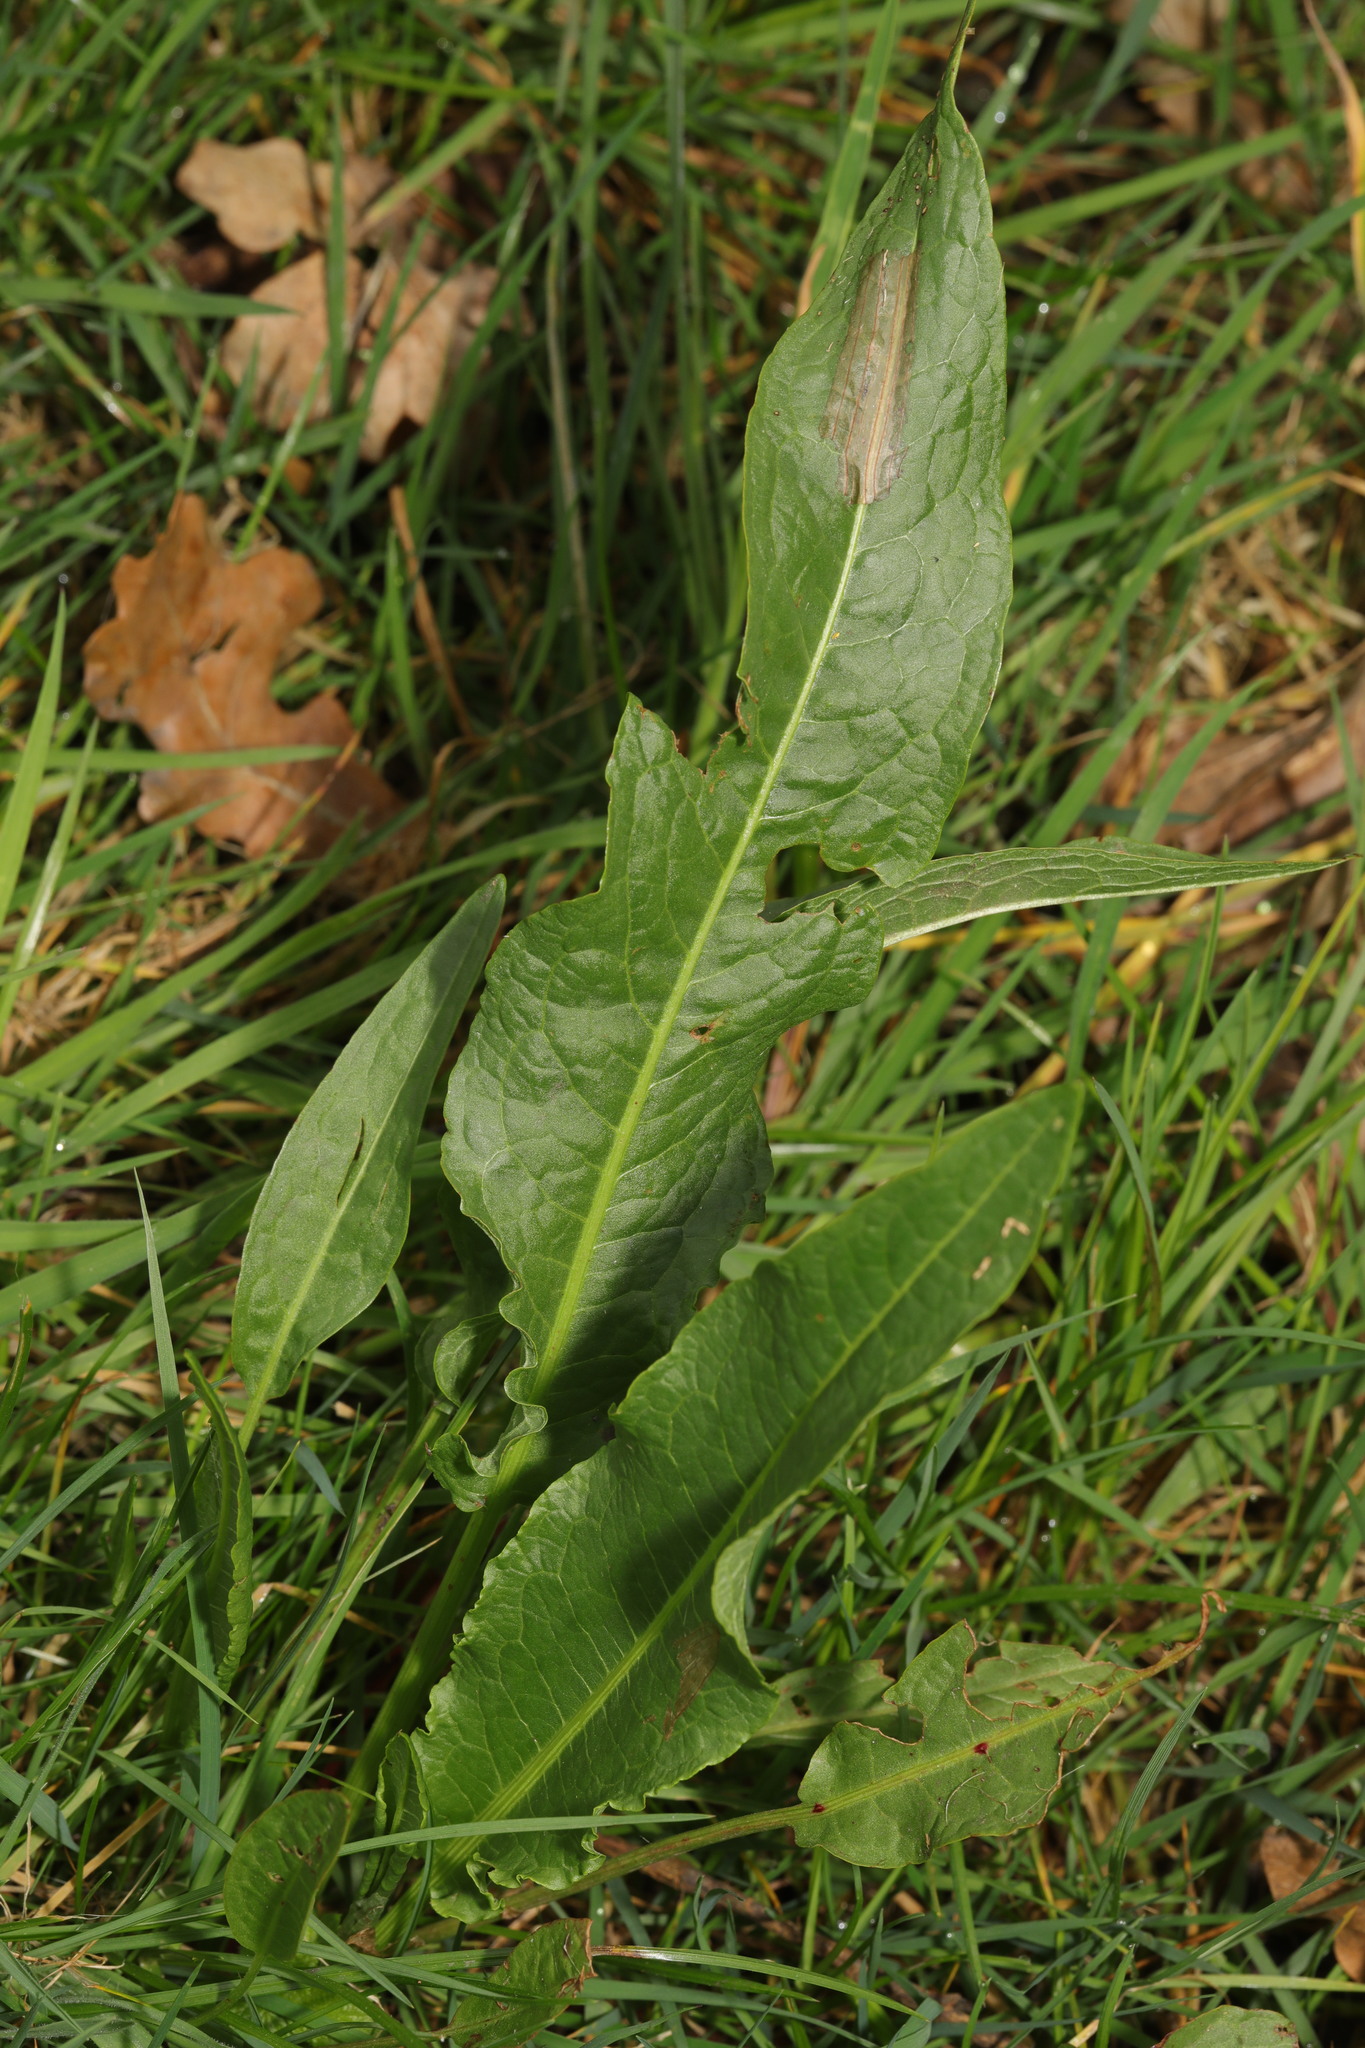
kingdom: Plantae
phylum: Tracheophyta
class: Magnoliopsida
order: Caryophyllales
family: Polygonaceae
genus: Rumex
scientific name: Rumex crispus
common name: Curled dock
